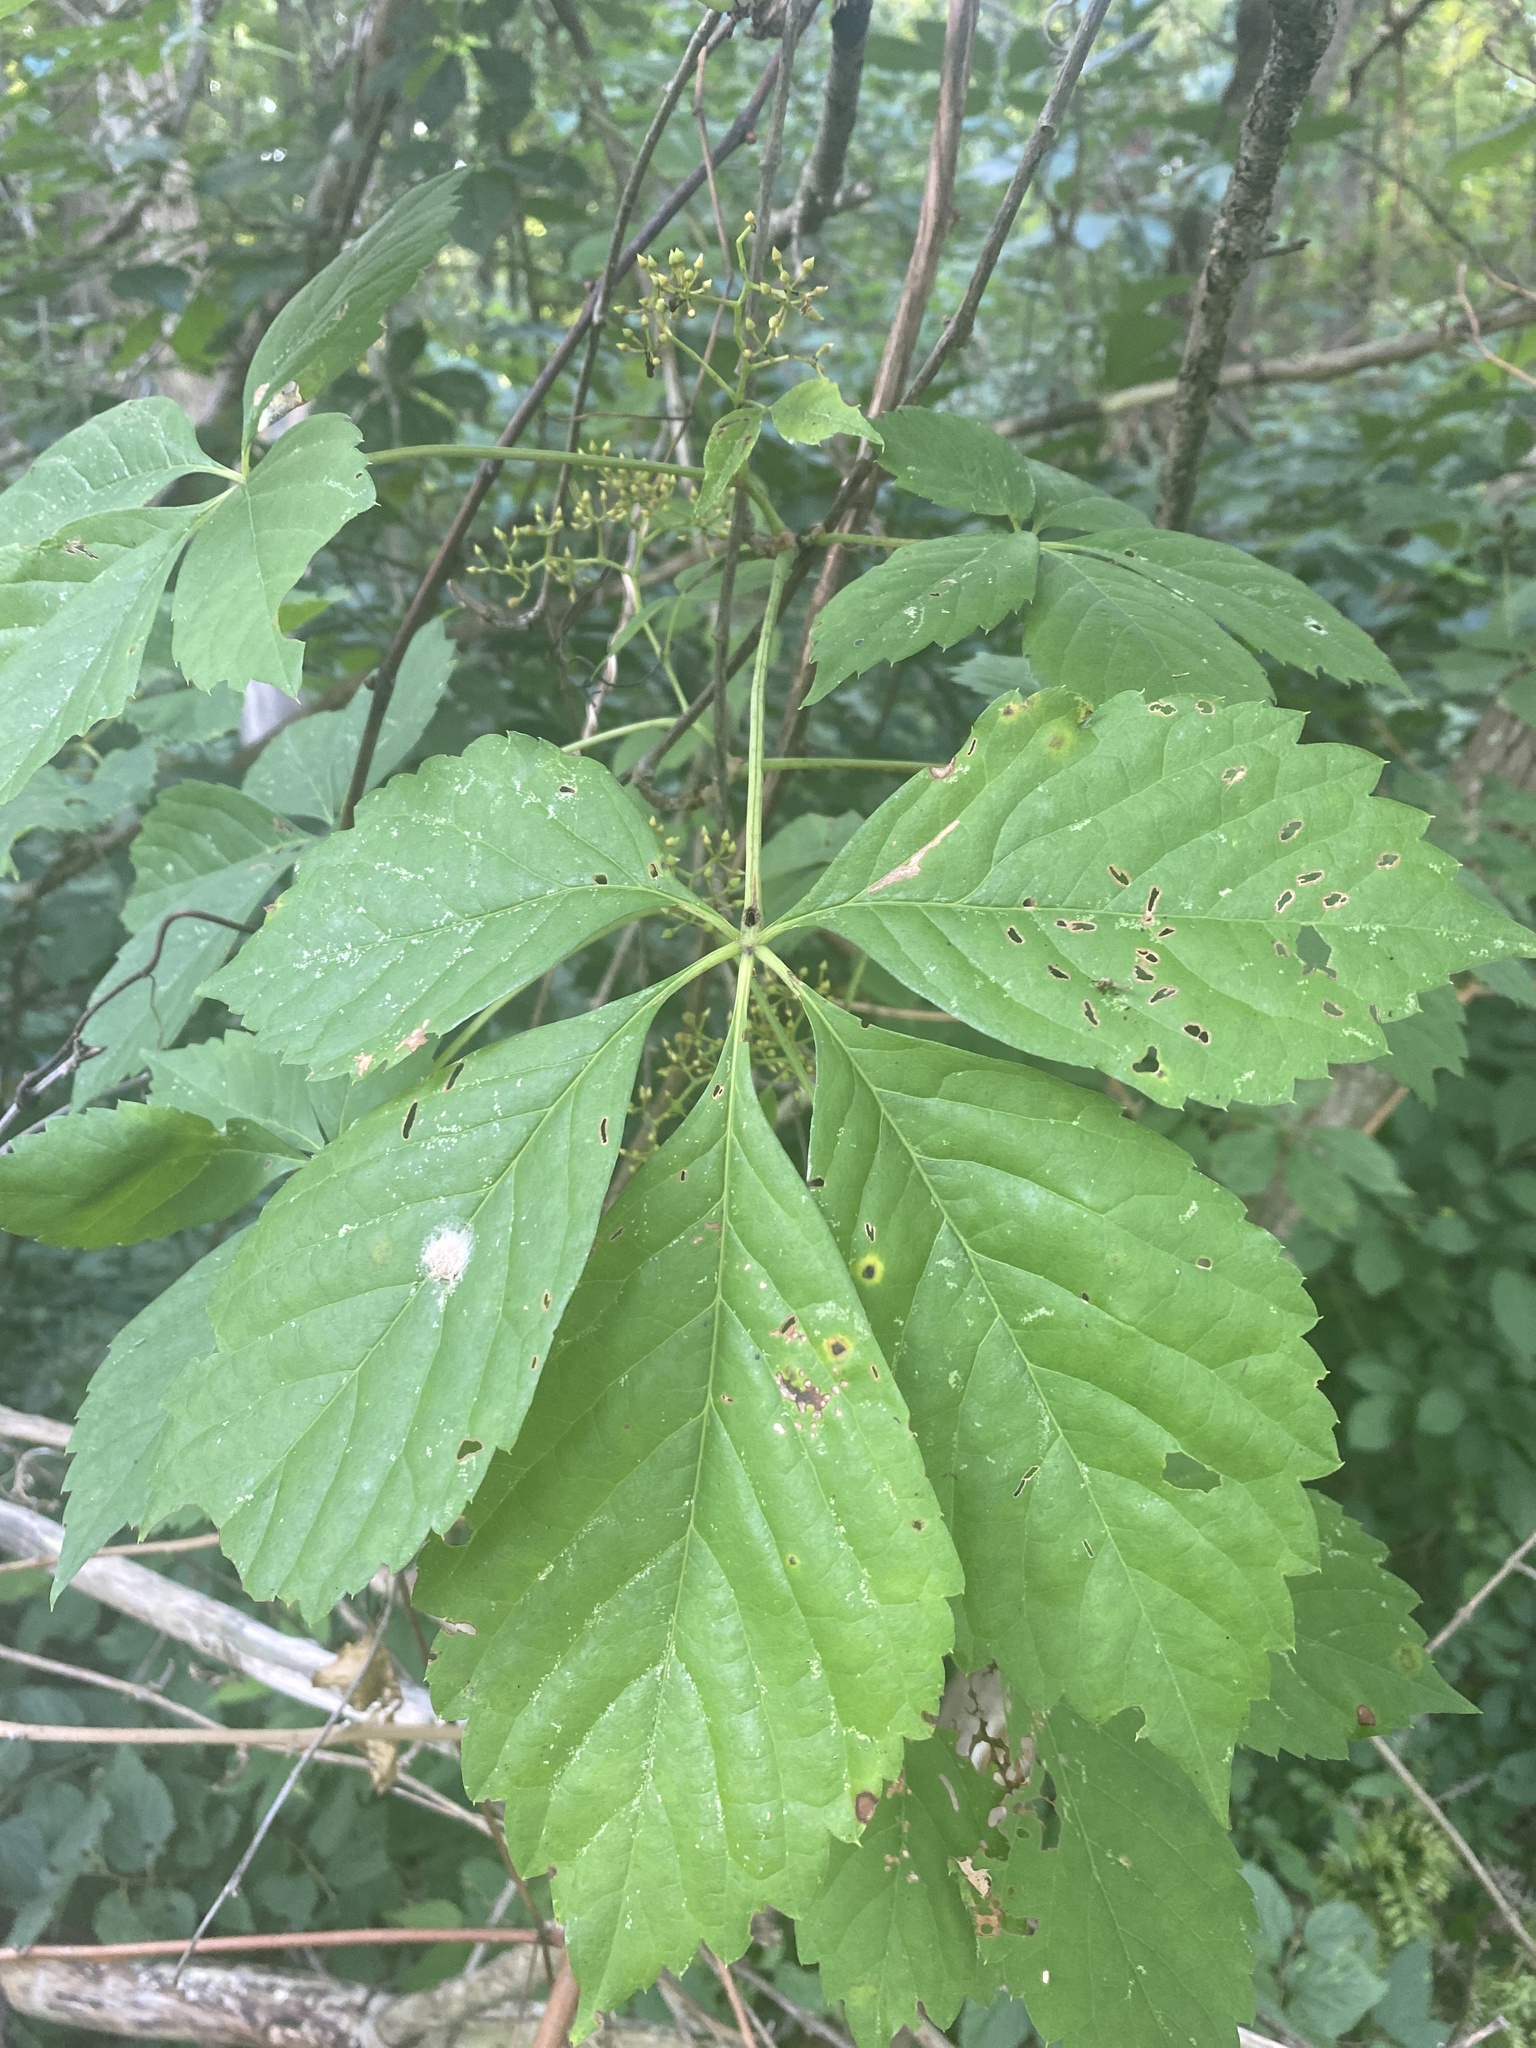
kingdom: Plantae
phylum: Tracheophyta
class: Magnoliopsida
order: Vitales
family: Vitaceae
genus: Parthenocissus
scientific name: Parthenocissus quinquefolia
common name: Virginia-creeper
